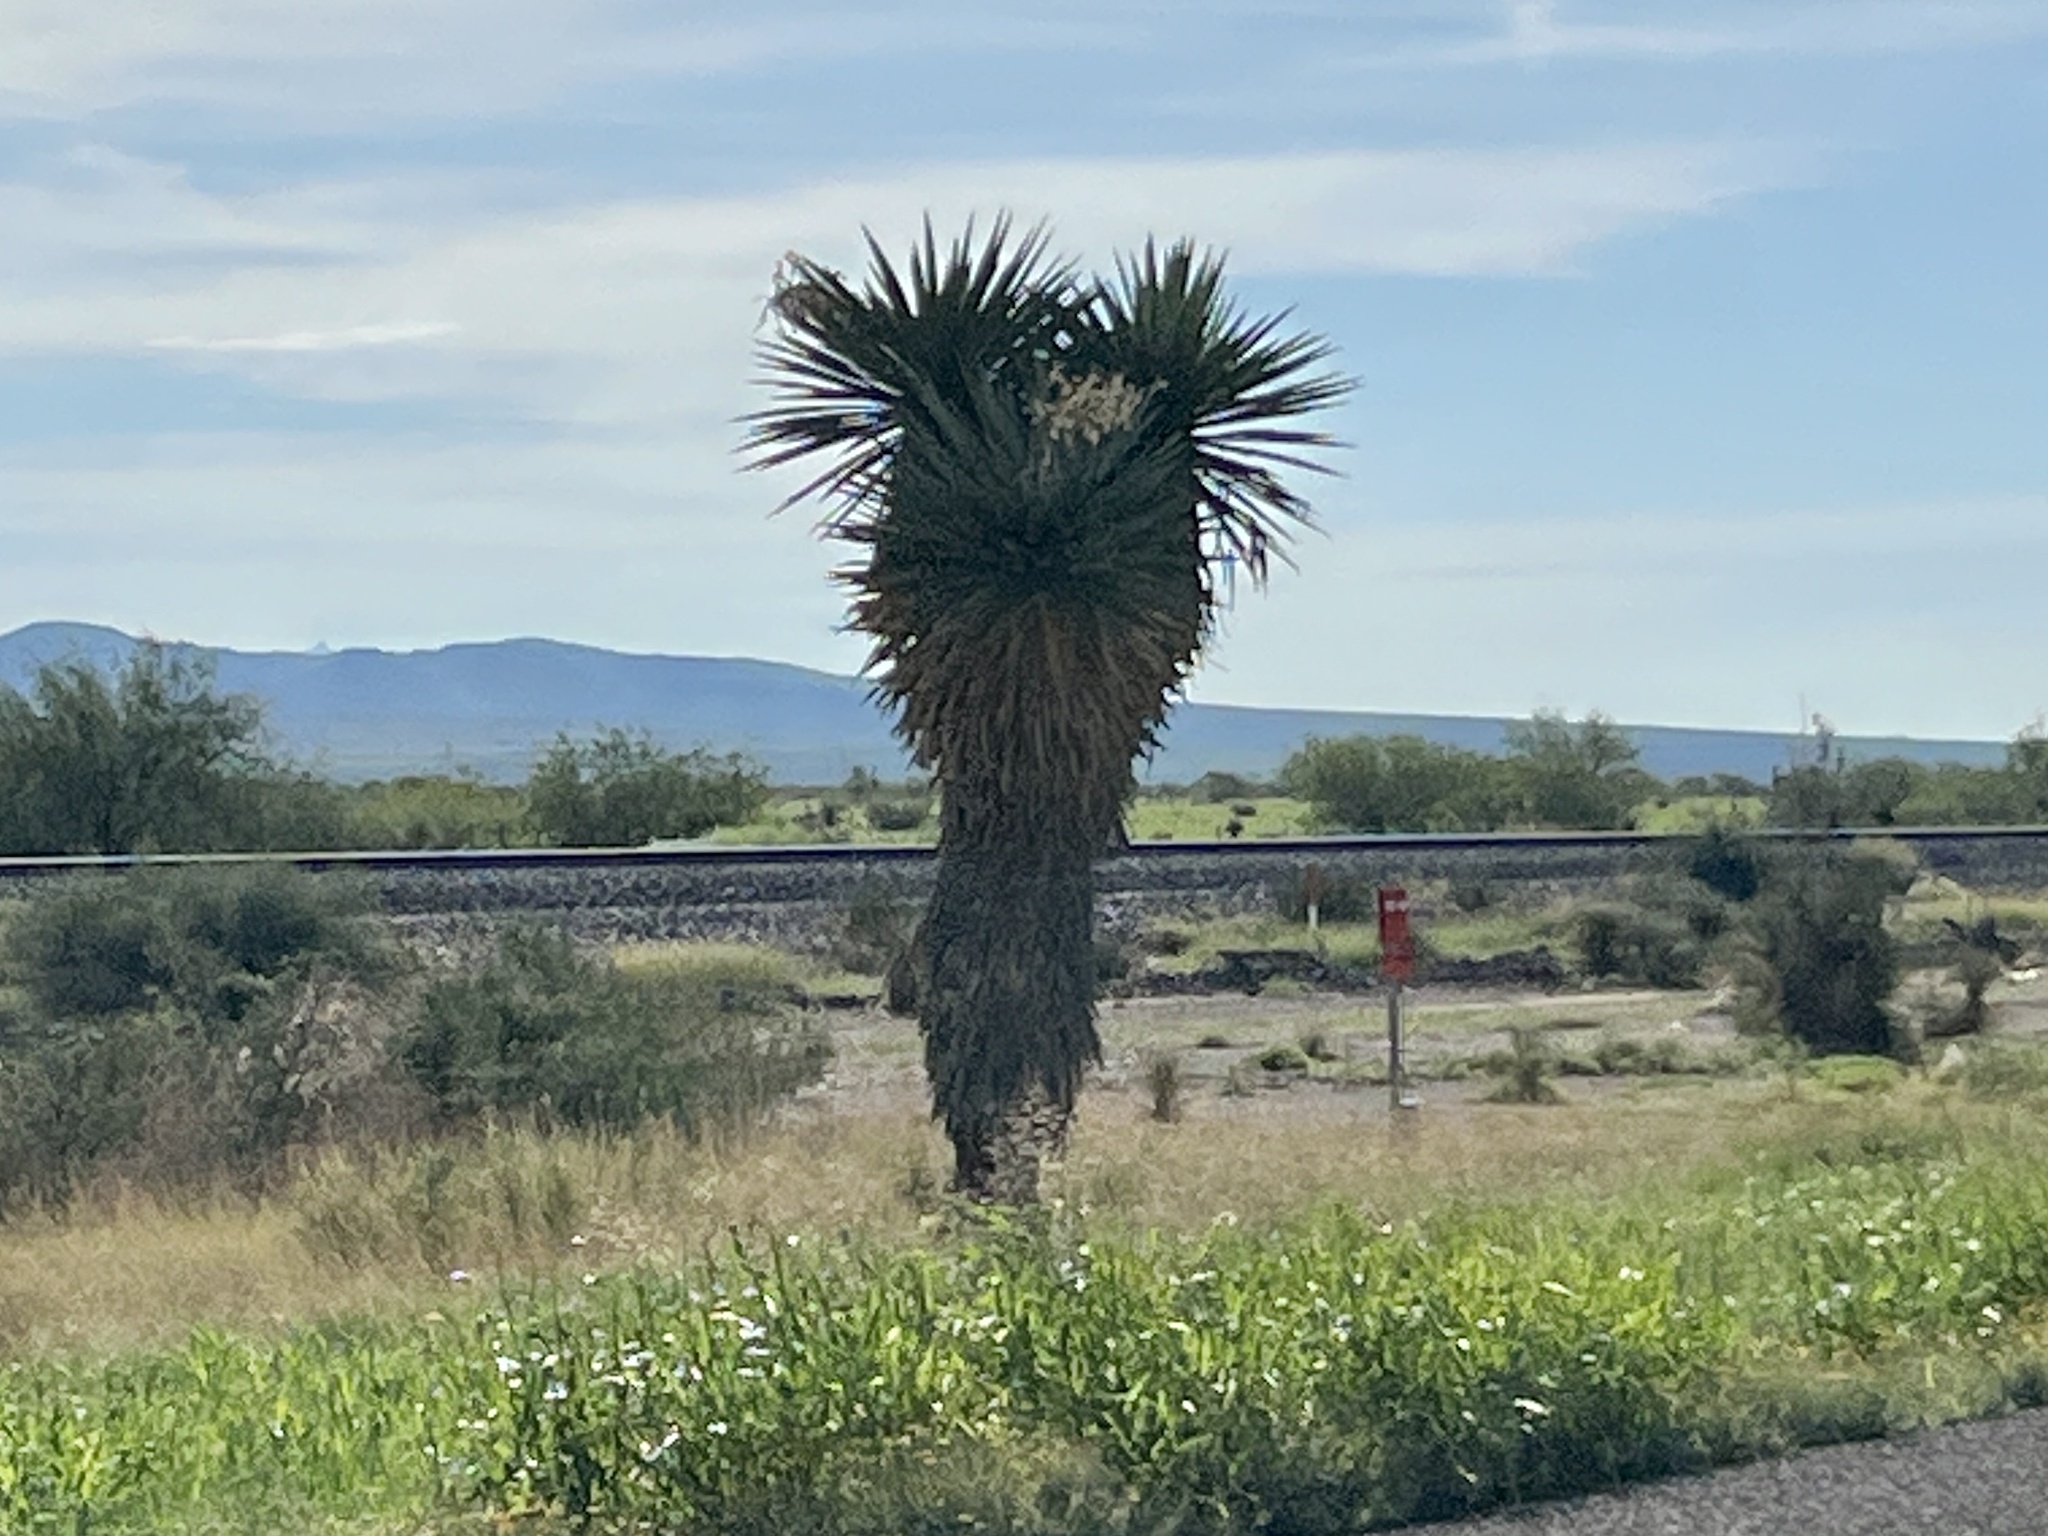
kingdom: Plantae
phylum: Tracheophyta
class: Liliopsida
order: Asparagales
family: Asparagaceae
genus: Yucca
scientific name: Yucca faxoniana
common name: Spanish dagger
